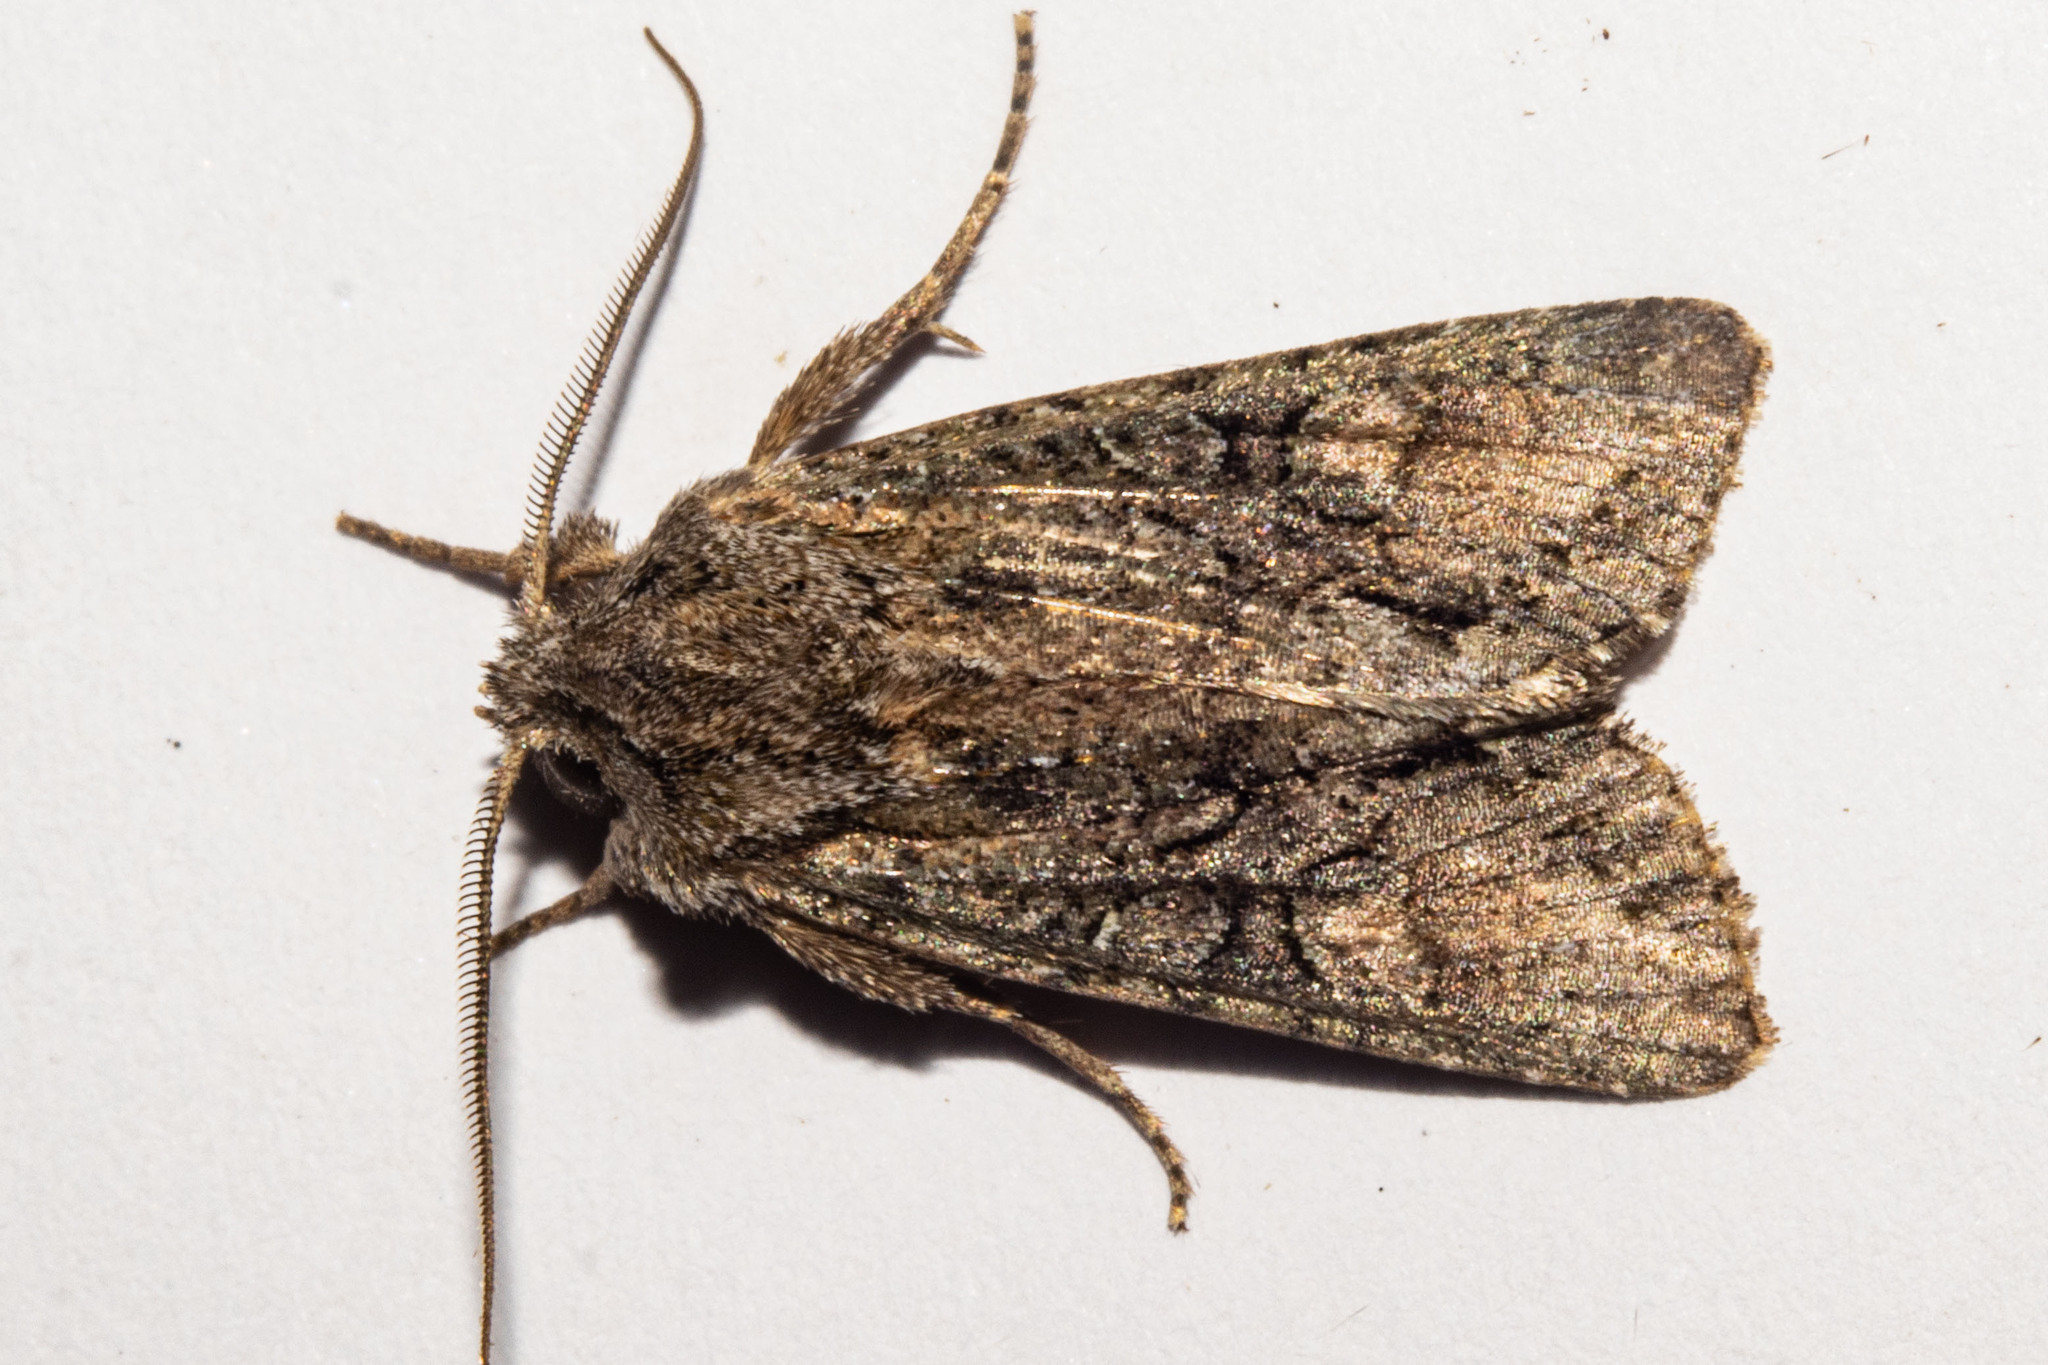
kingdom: Animalia
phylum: Arthropoda
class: Insecta
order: Lepidoptera
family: Noctuidae
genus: Ichneutica
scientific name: Ichneutica mutans
